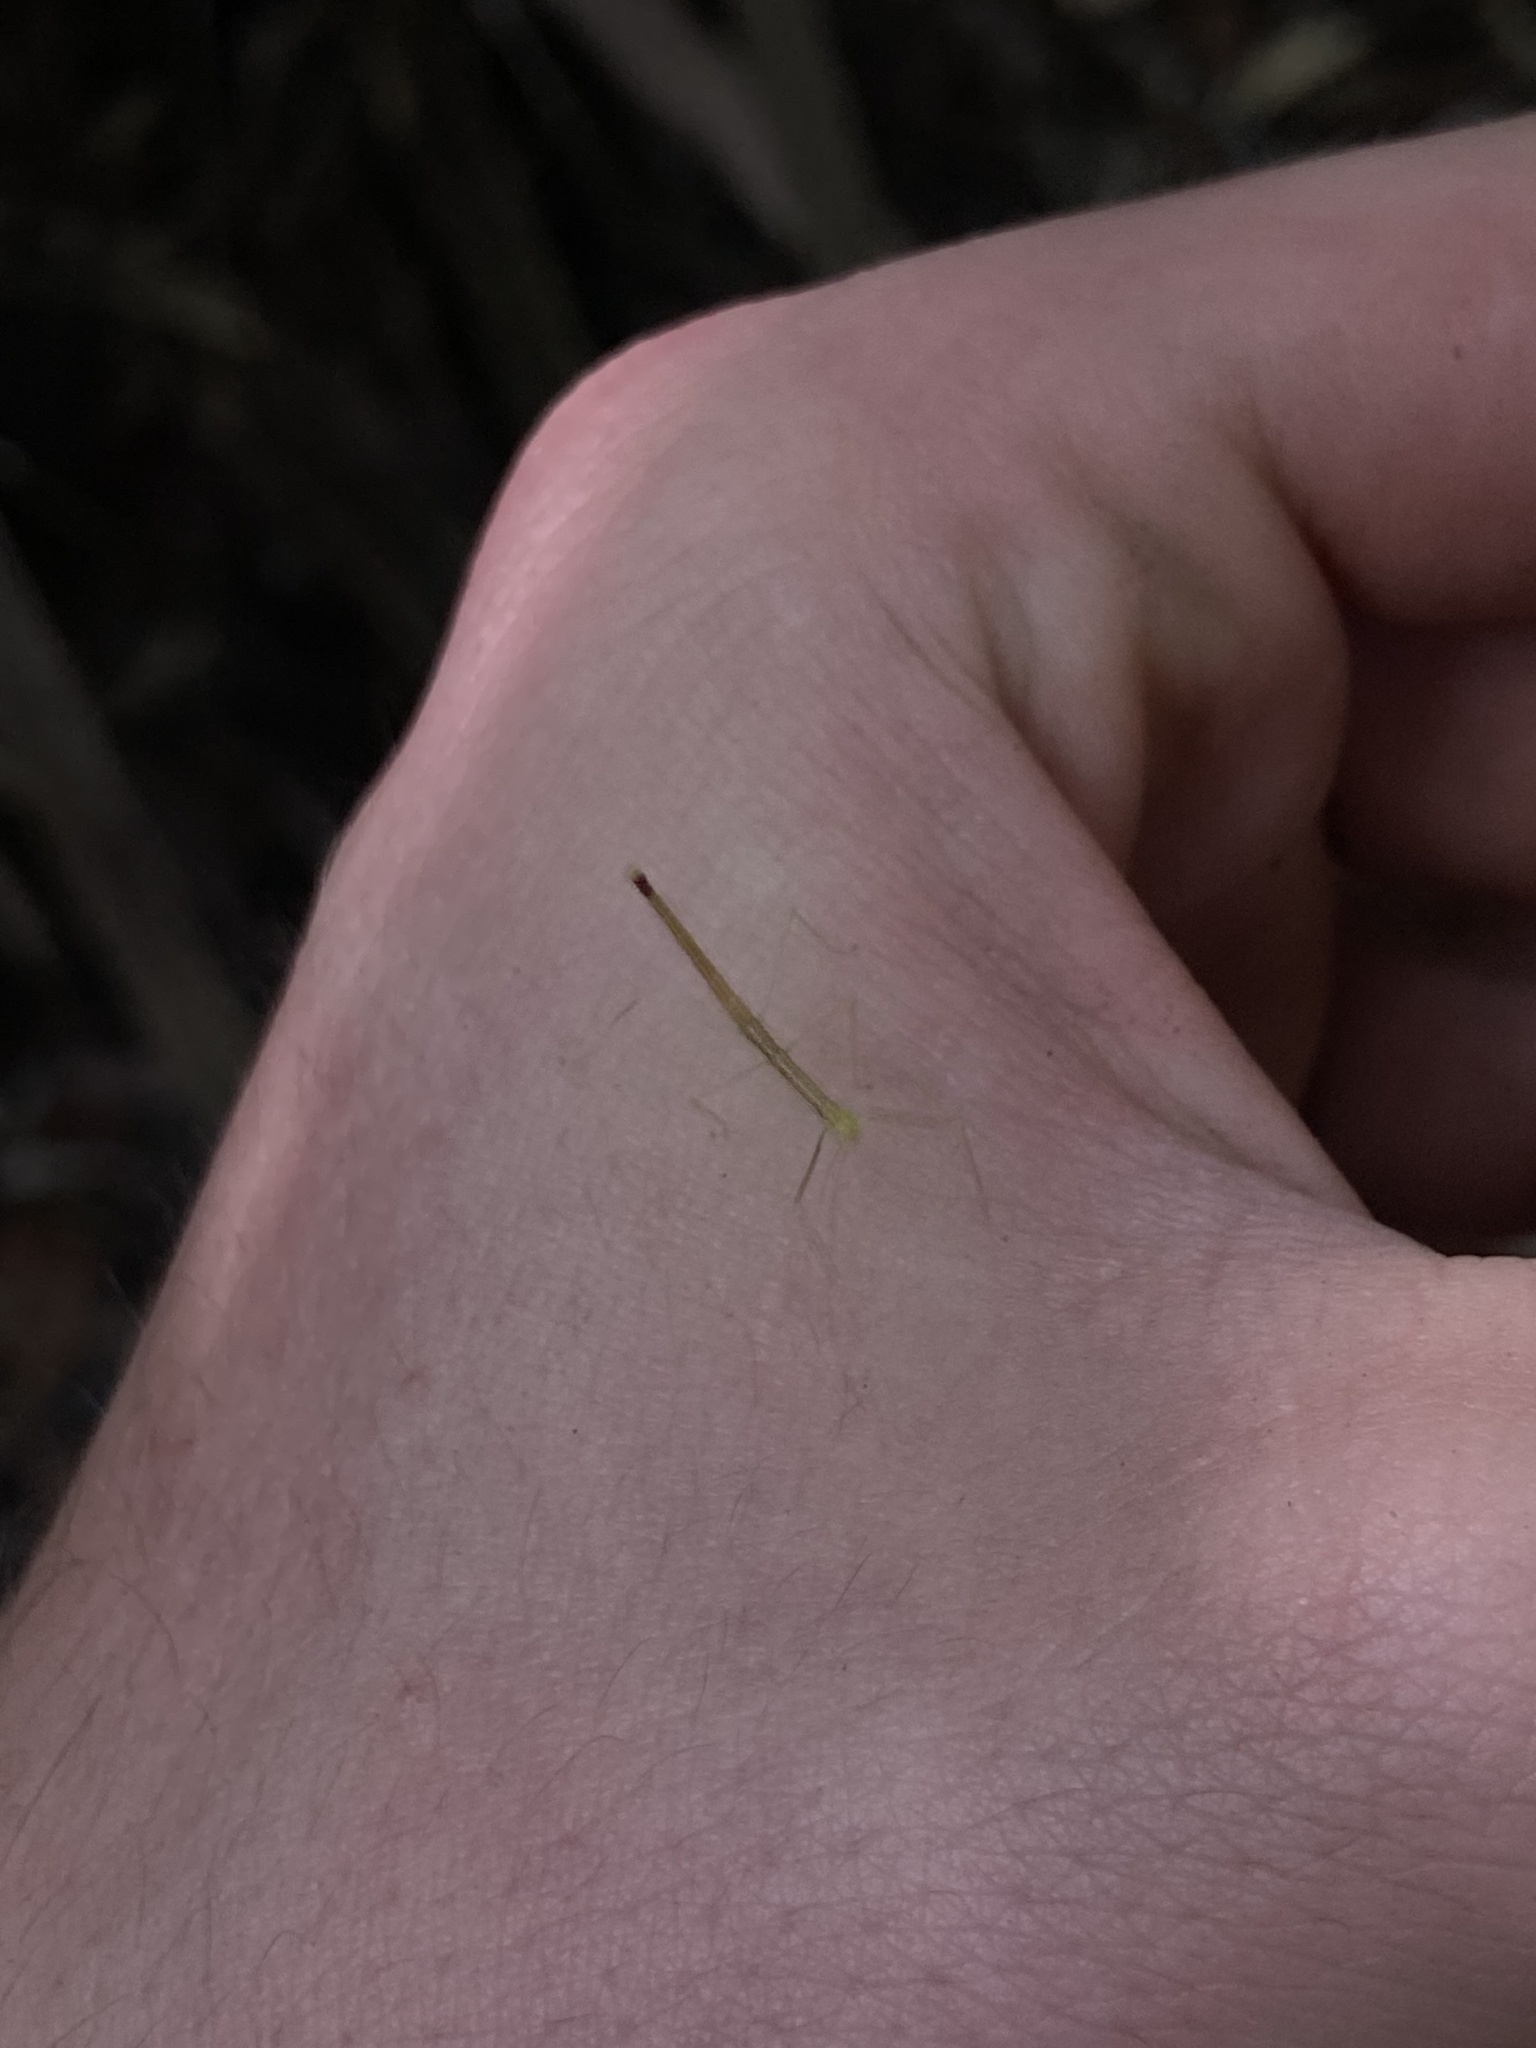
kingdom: Animalia
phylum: Arthropoda
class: Insecta
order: Phasmida
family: Lonchodidae
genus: Candovia
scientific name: Candovia strumosa
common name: Richmond river stick-insect
